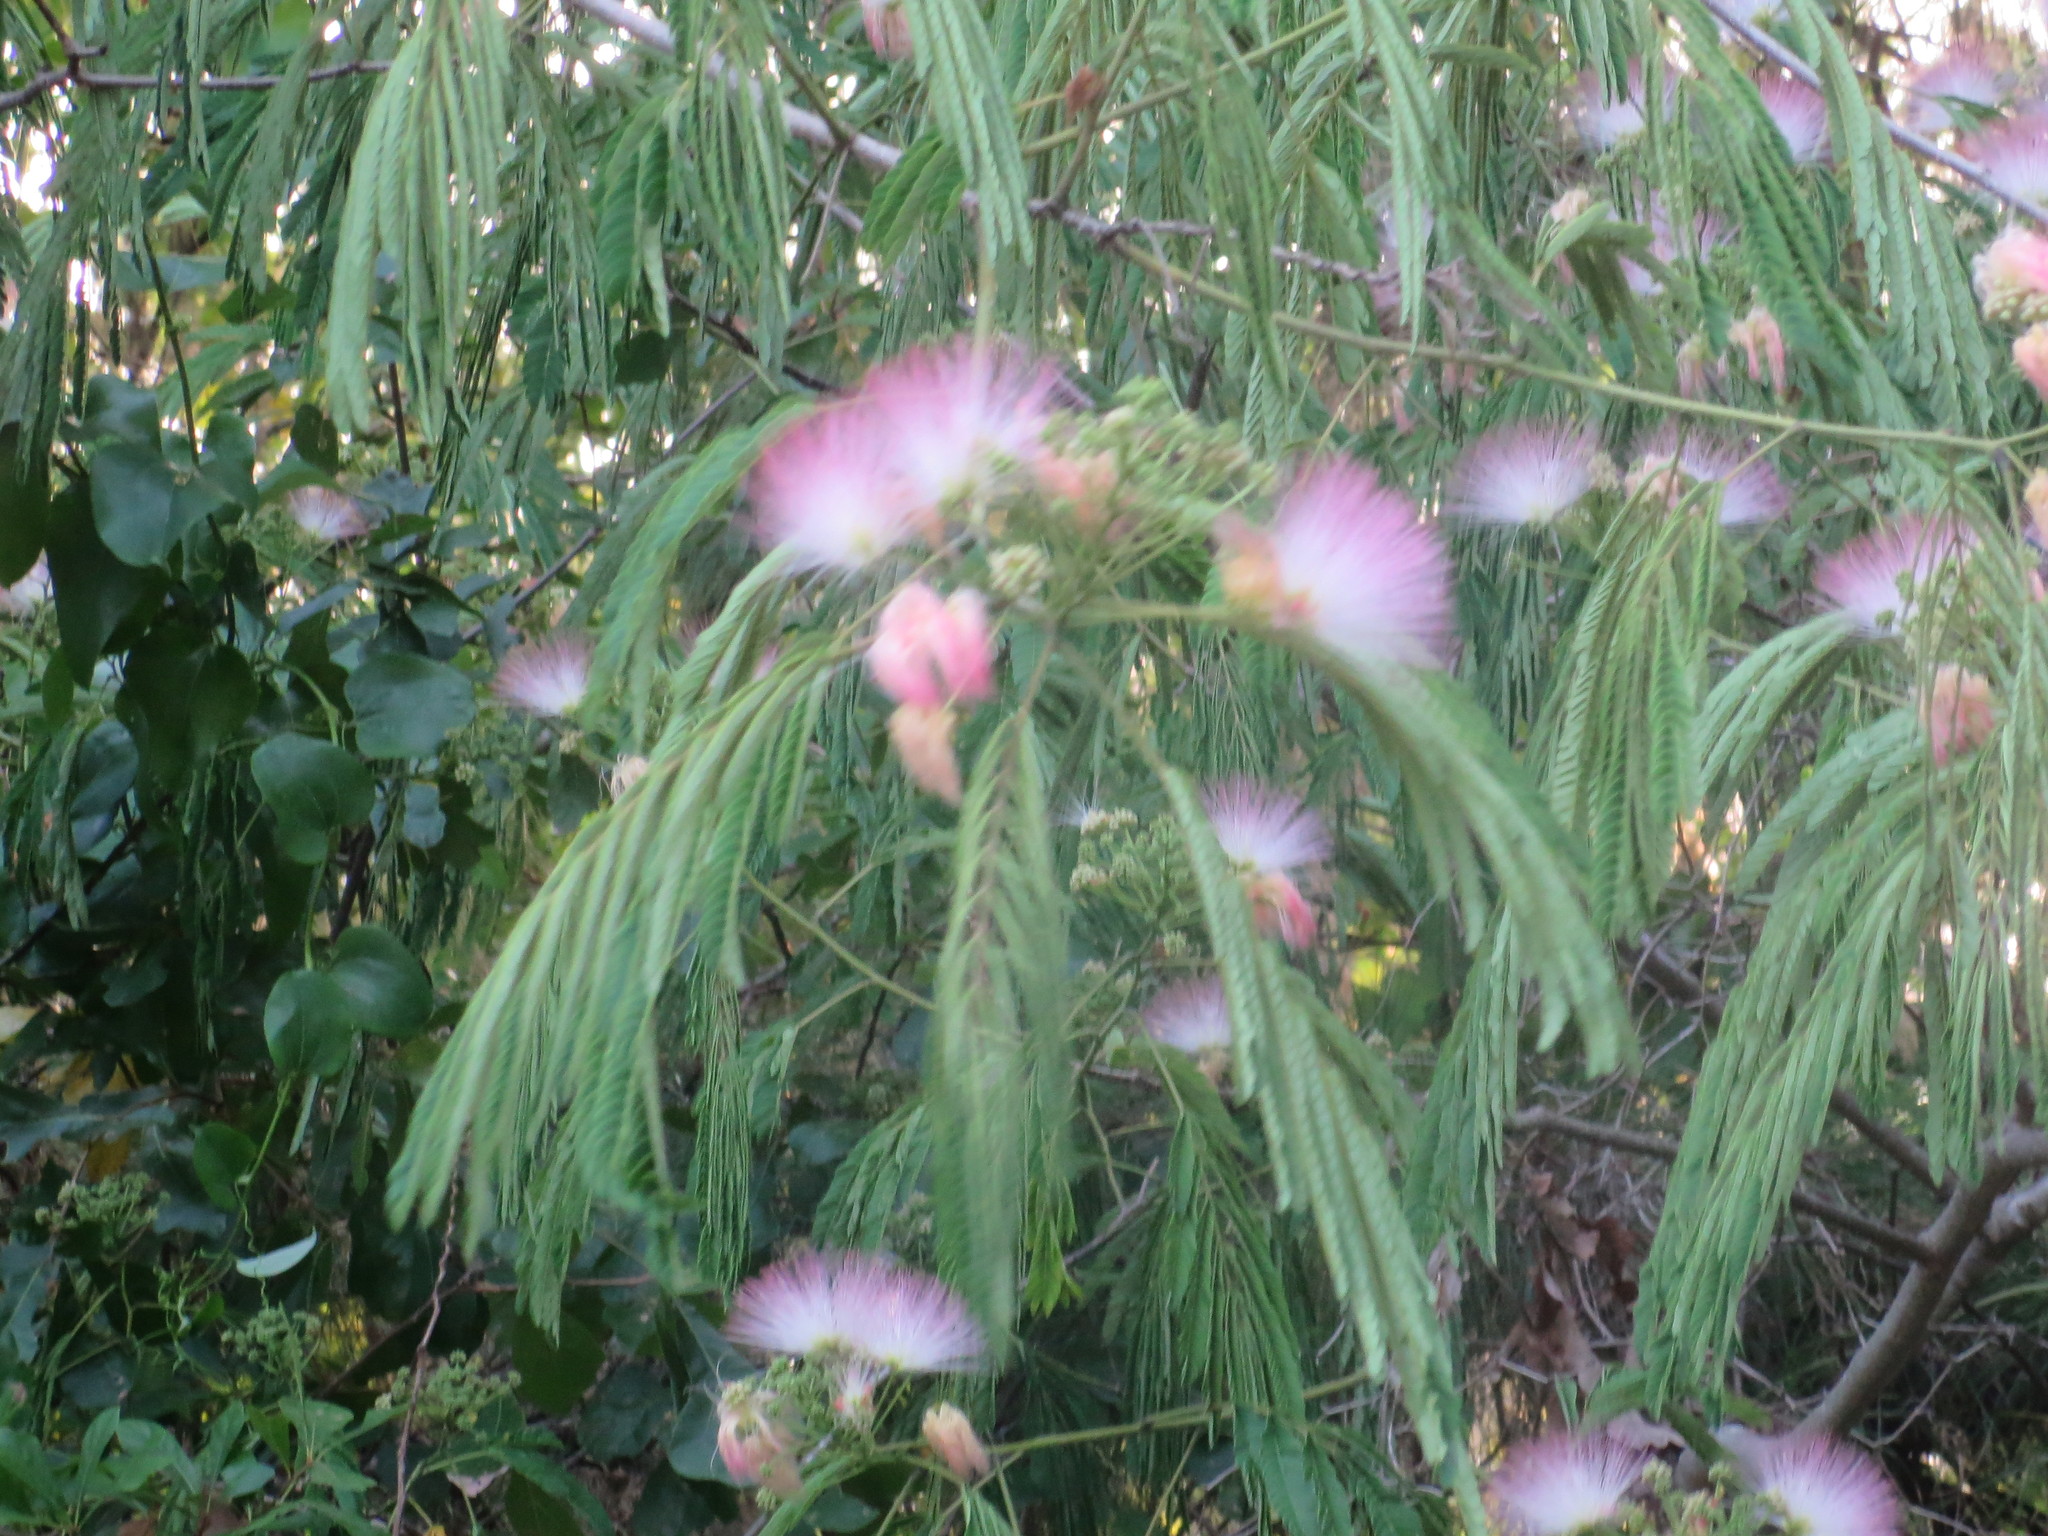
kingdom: Plantae
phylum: Tracheophyta
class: Magnoliopsida
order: Fabales
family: Fabaceae
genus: Albizia
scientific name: Albizia julibrissin
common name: Silktree
